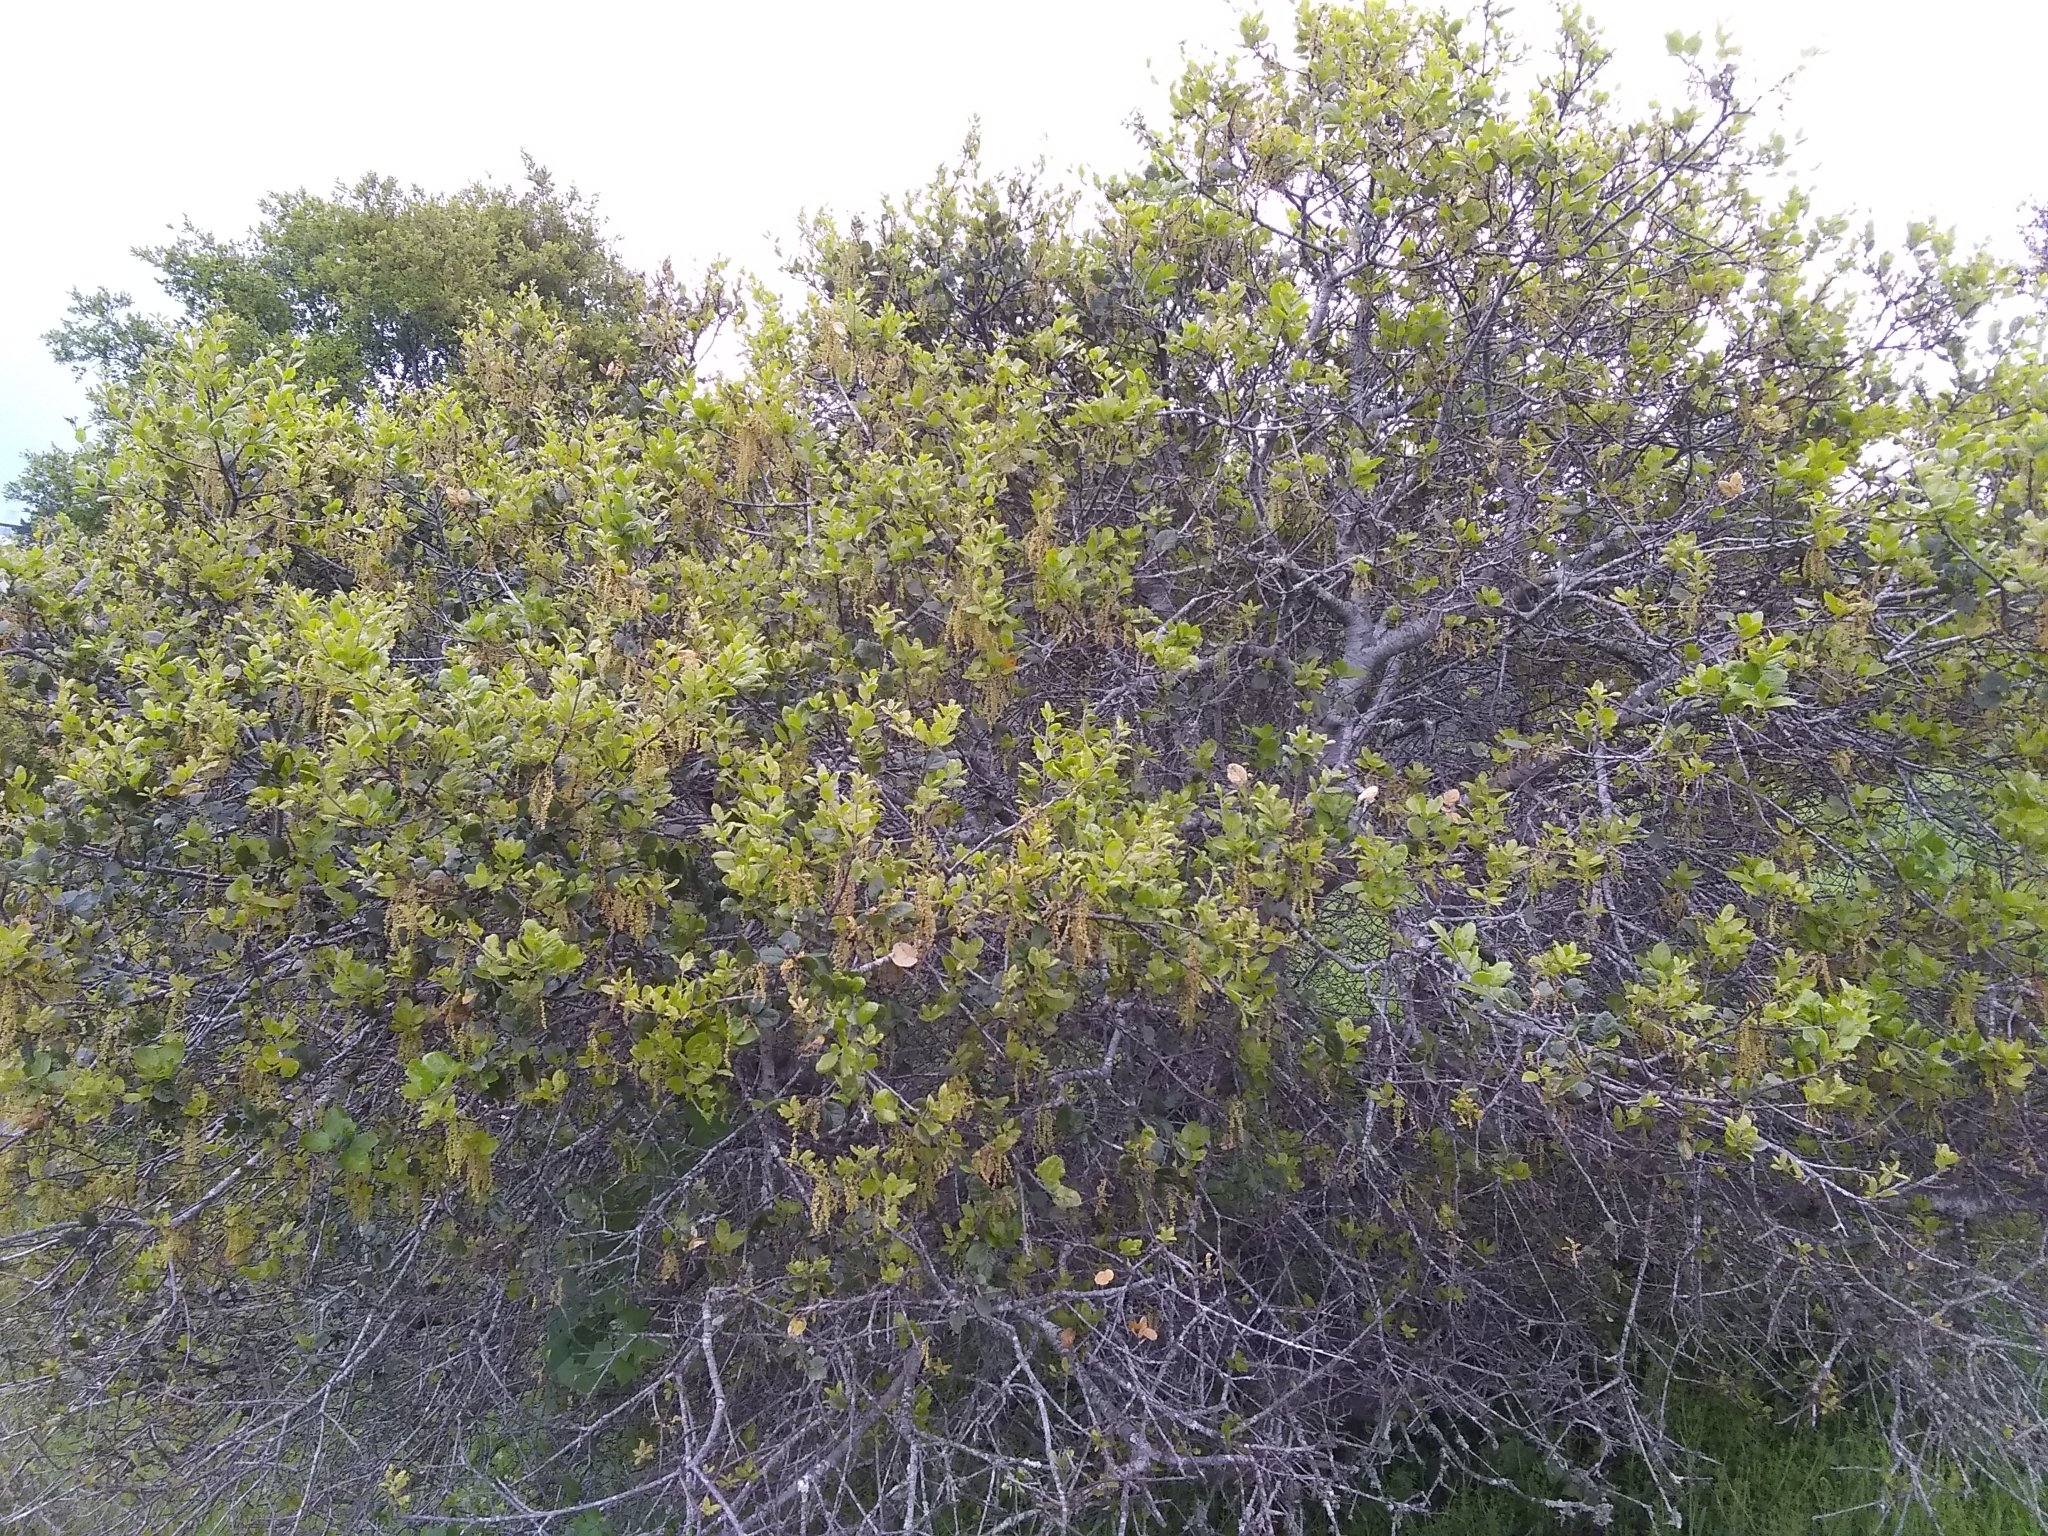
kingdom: Plantae
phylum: Tracheophyta
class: Magnoliopsida
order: Fagales
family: Fagaceae
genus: Quercus
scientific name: Quercus agrifolia
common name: California live oak
